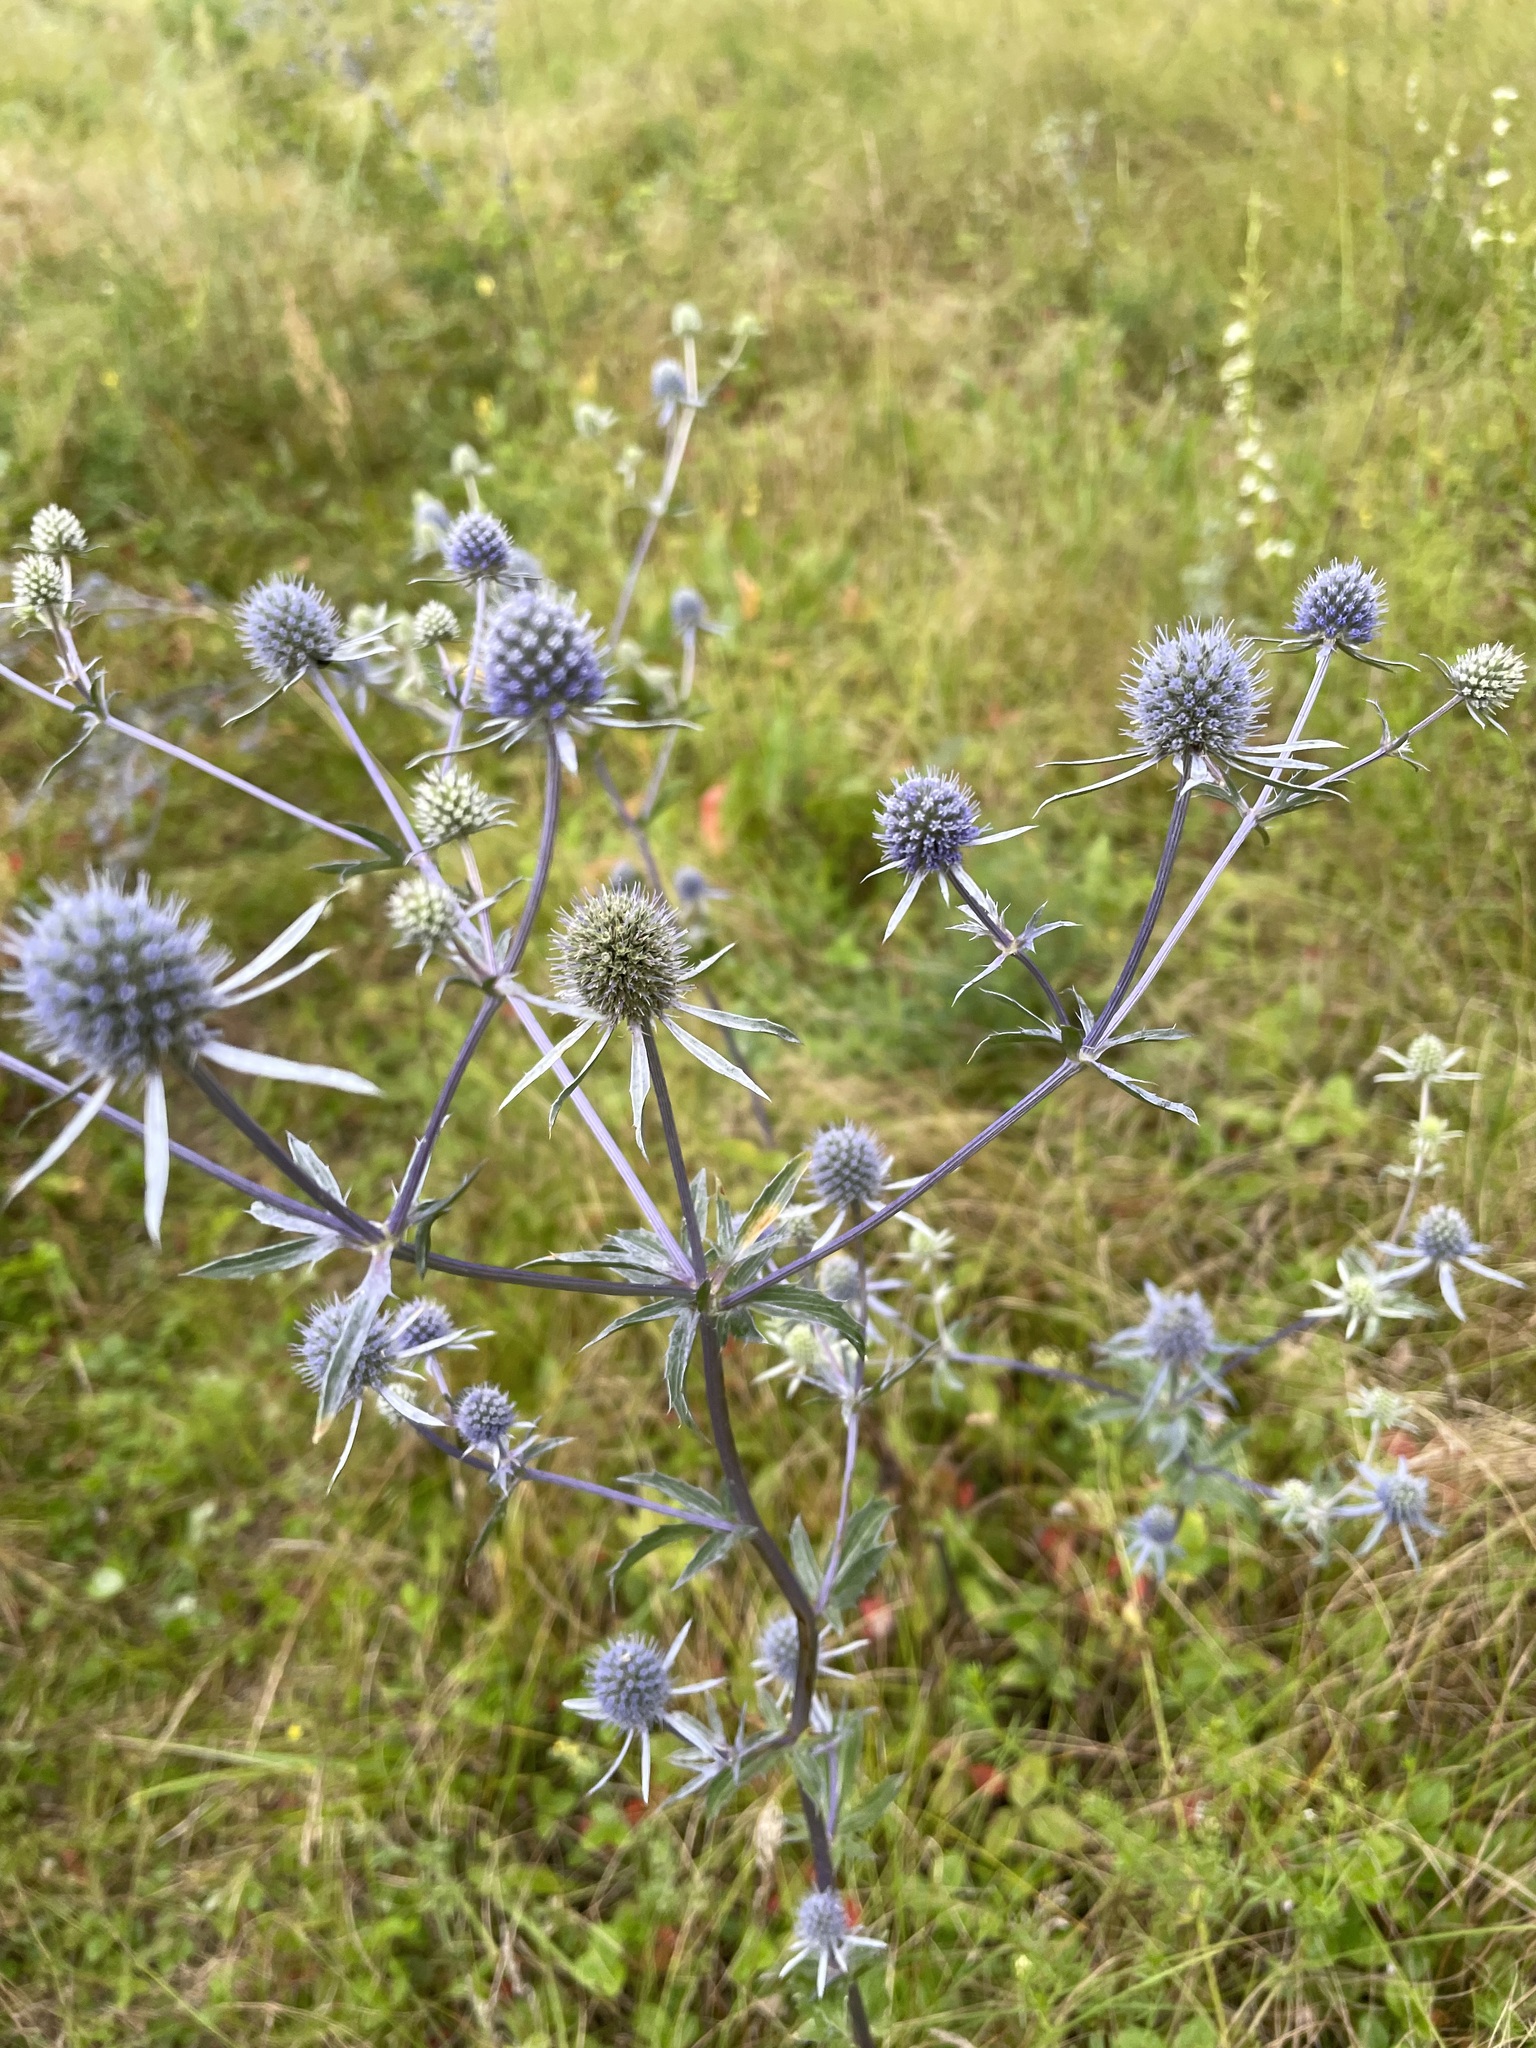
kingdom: Plantae
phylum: Tracheophyta
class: Magnoliopsida
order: Apiales
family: Apiaceae
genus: Eryngium
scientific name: Eryngium planum
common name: Blue eryngo
